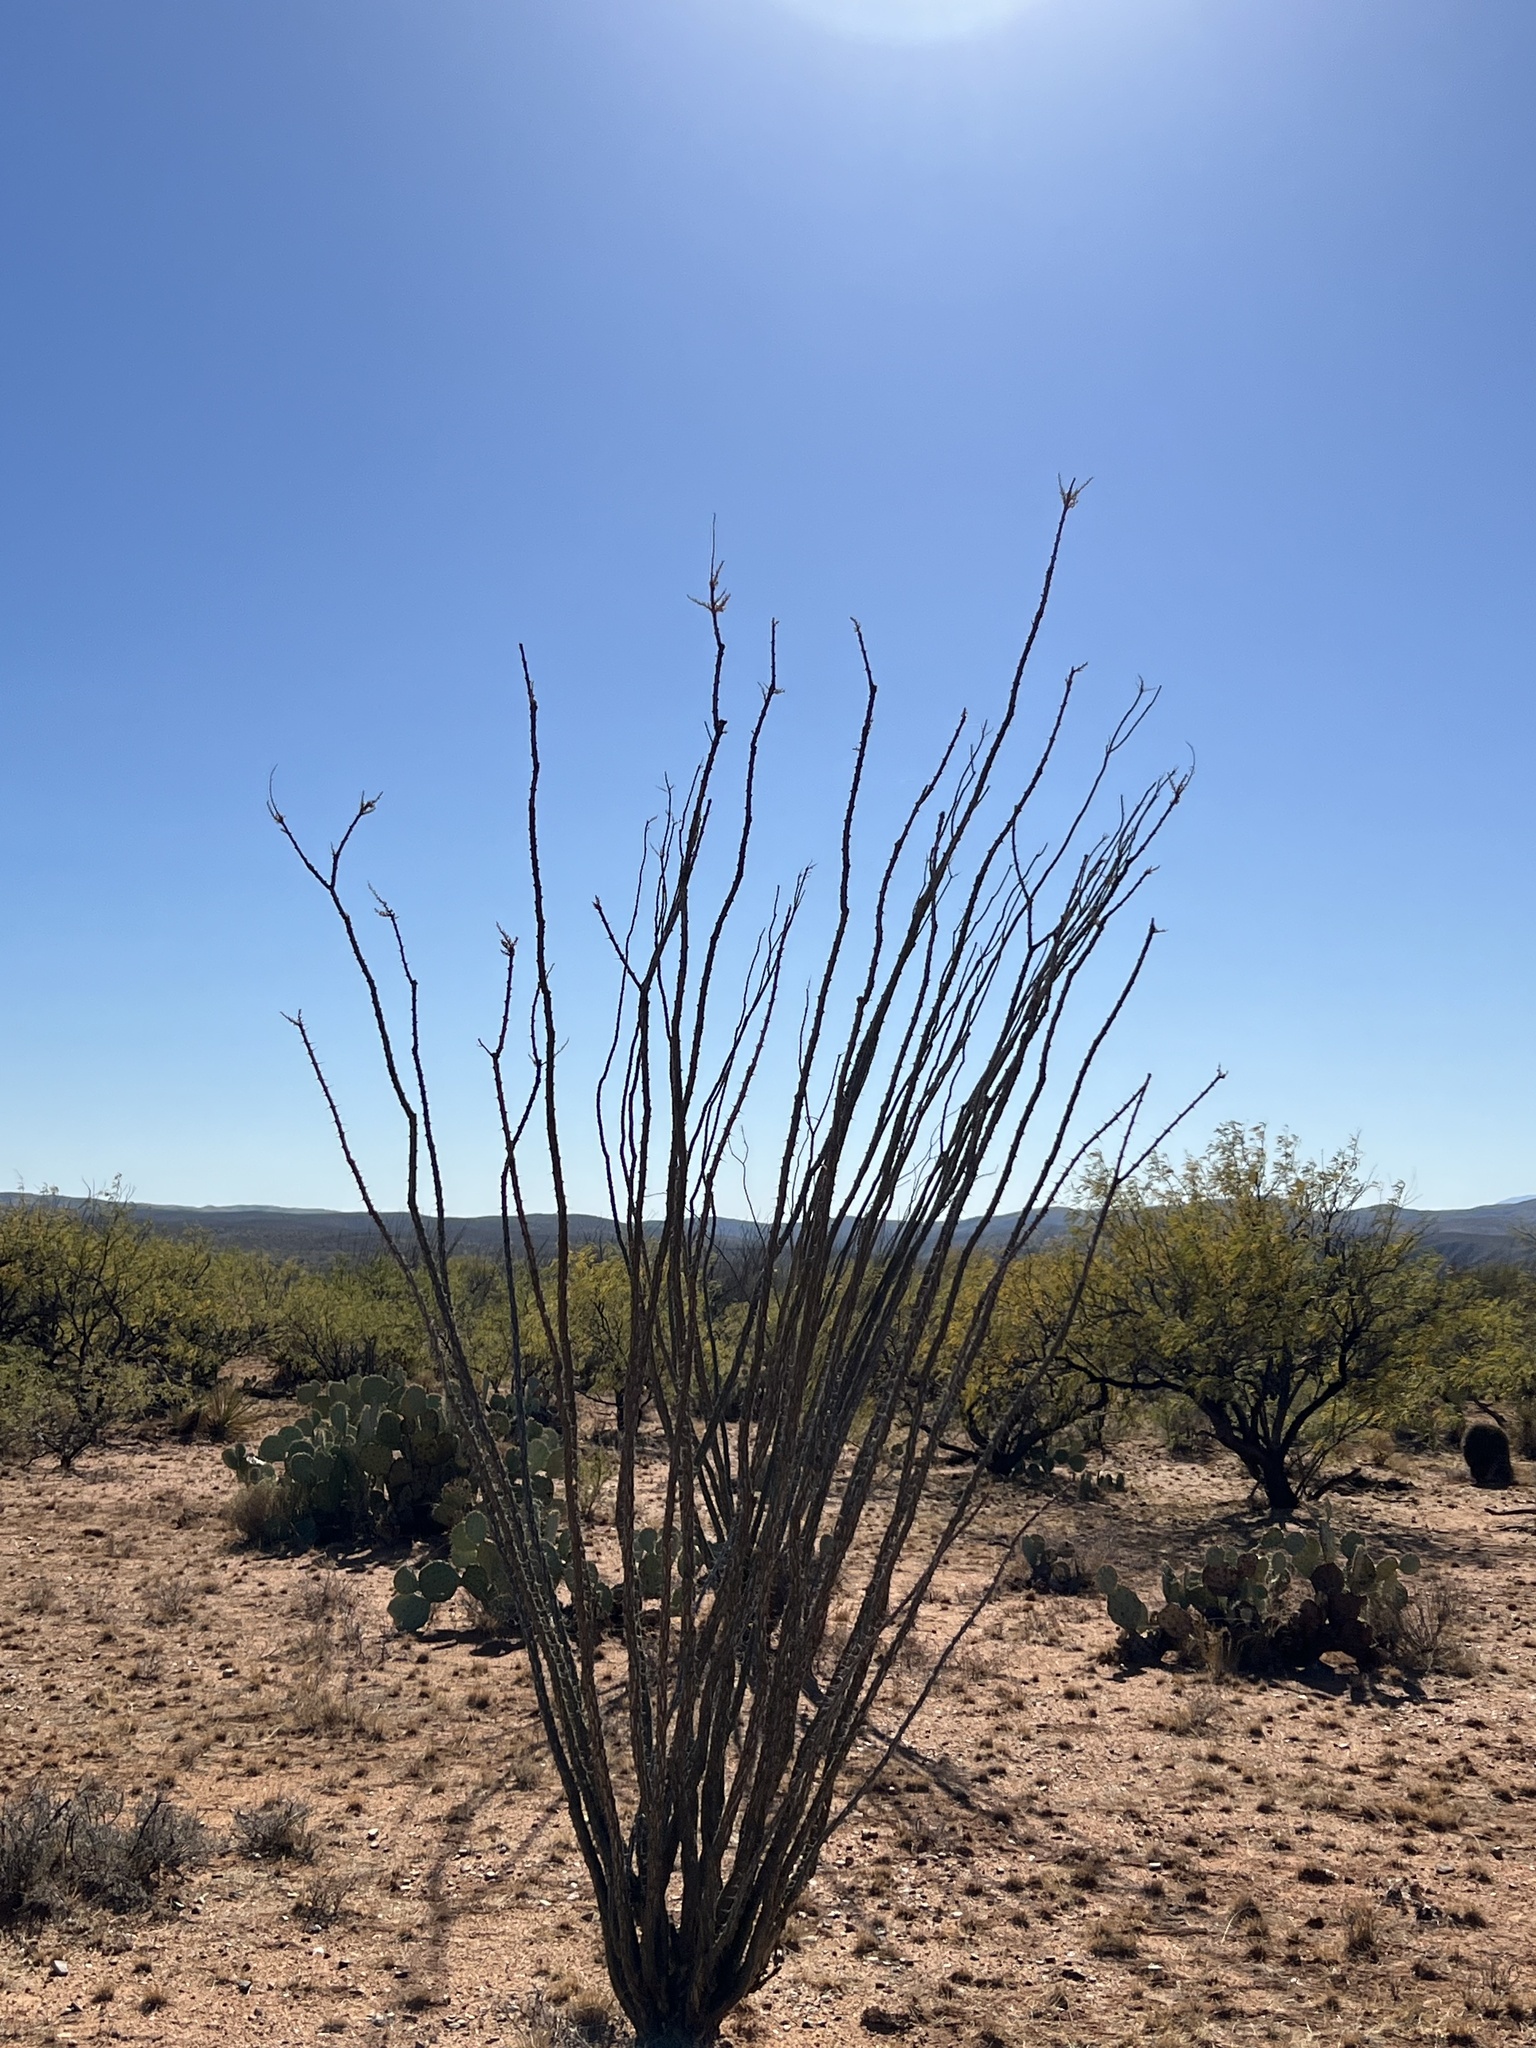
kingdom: Plantae
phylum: Tracheophyta
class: Magnoliopsida
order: Ericales
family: Fouquieriaceae
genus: Fouquieria
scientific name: Fouquieria splendens
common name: Vine-cactus
